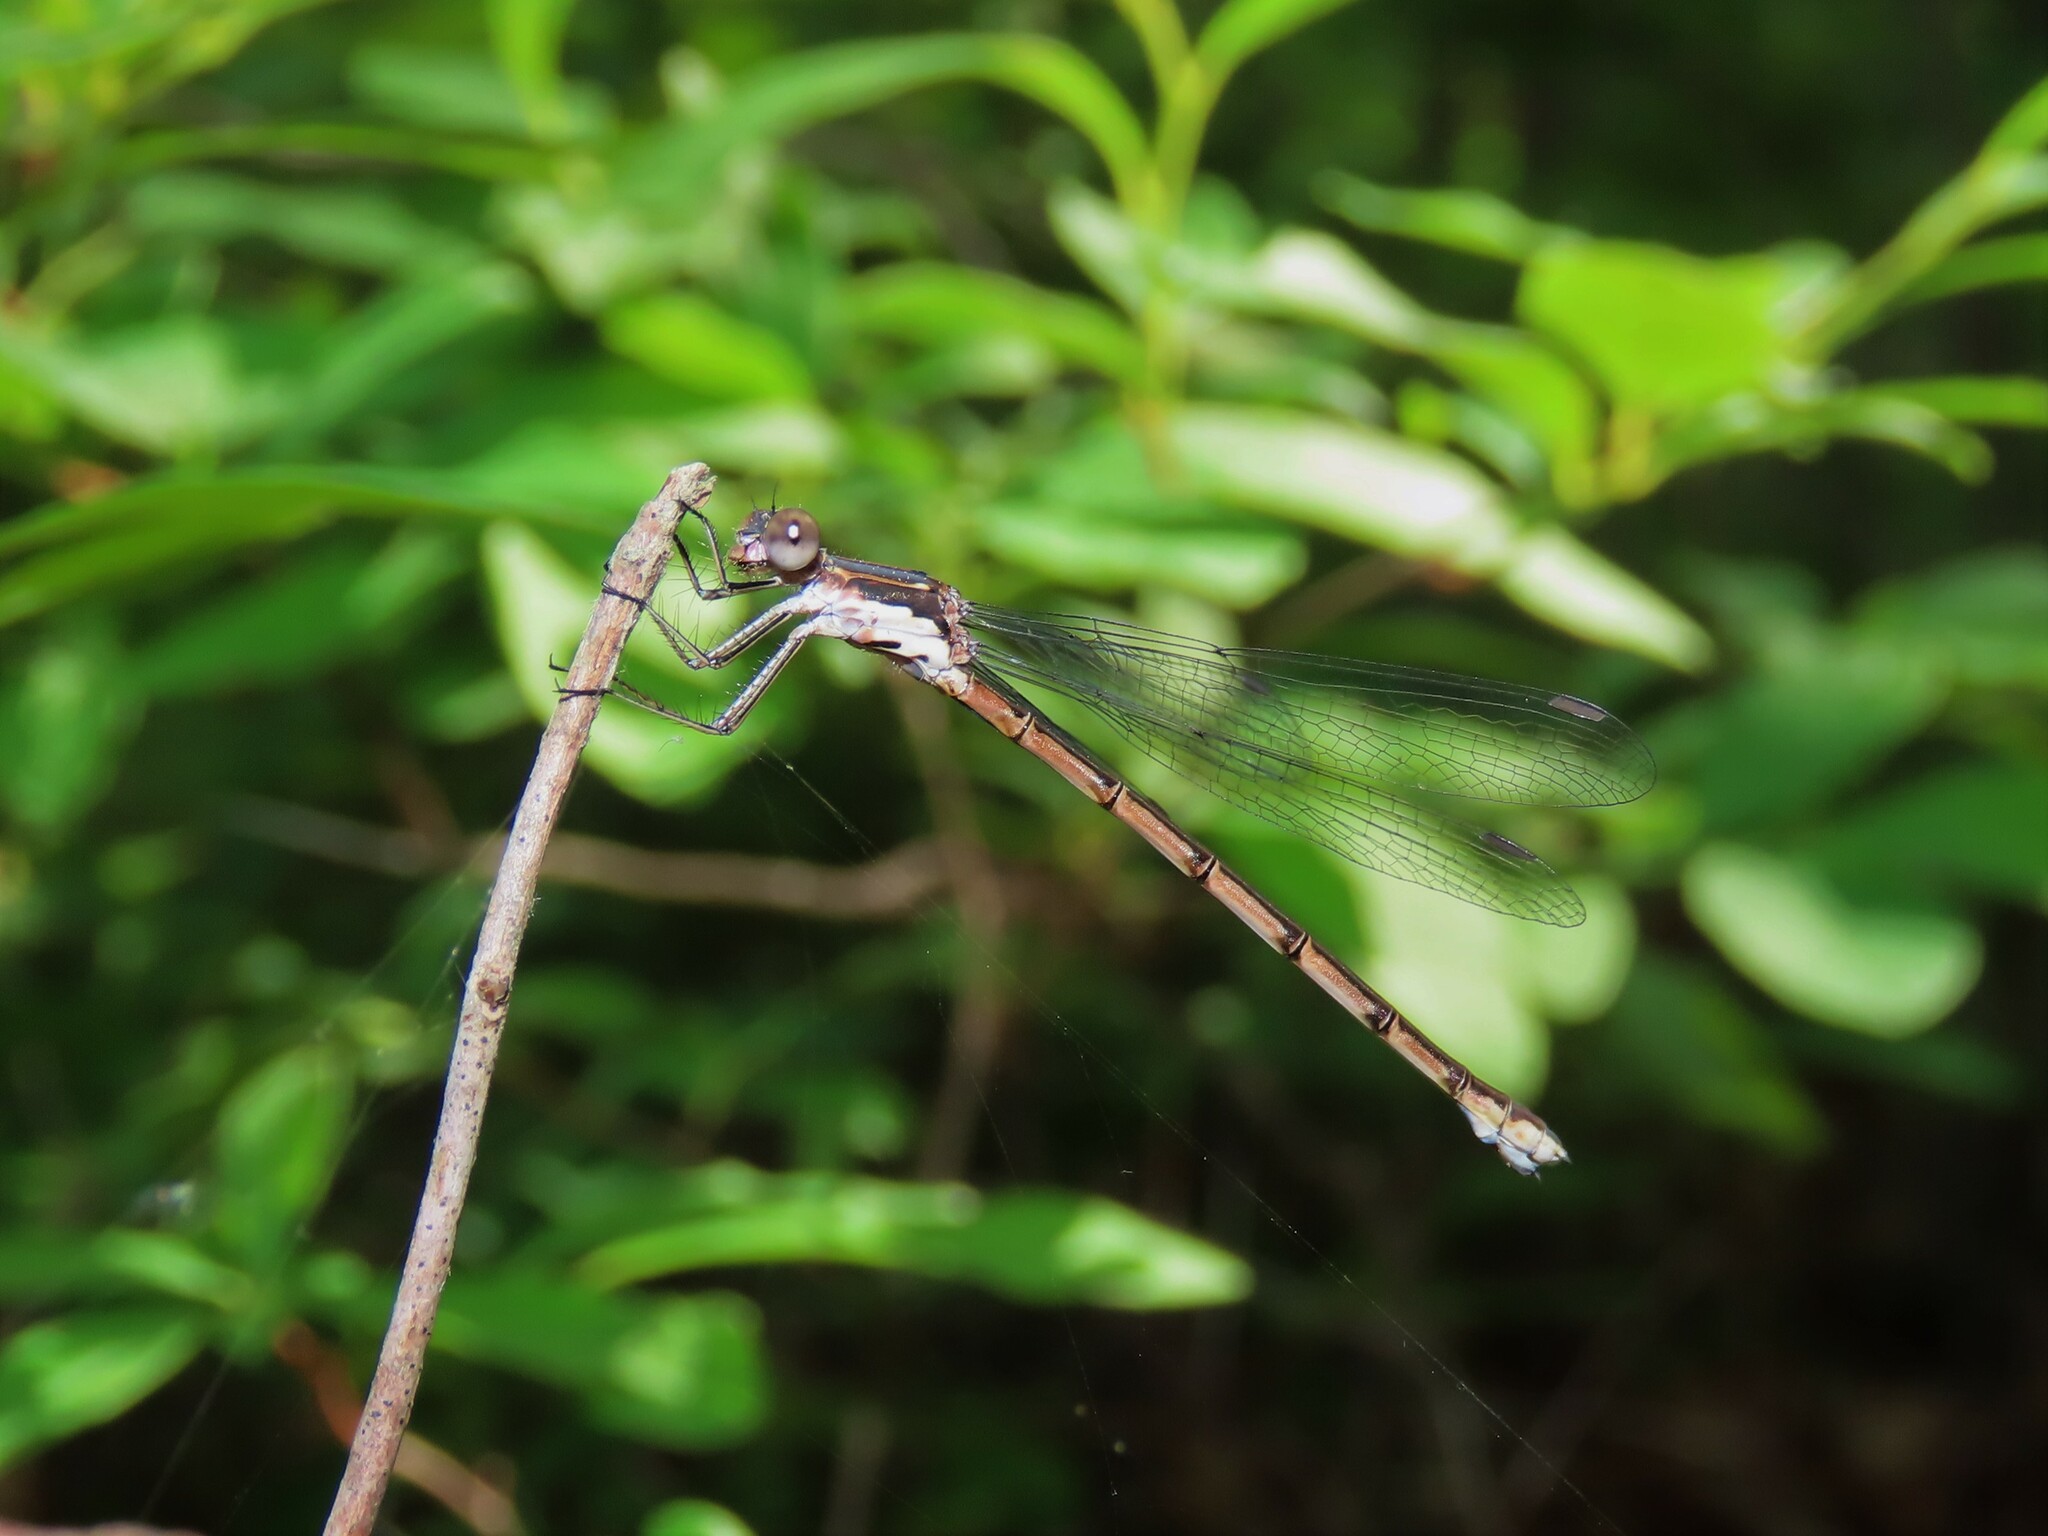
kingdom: Animalia
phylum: Arthropoda
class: Insecta
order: Odonata
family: Lestidae
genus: Lestes
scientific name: Lestes congener
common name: Spotted spreadwing
